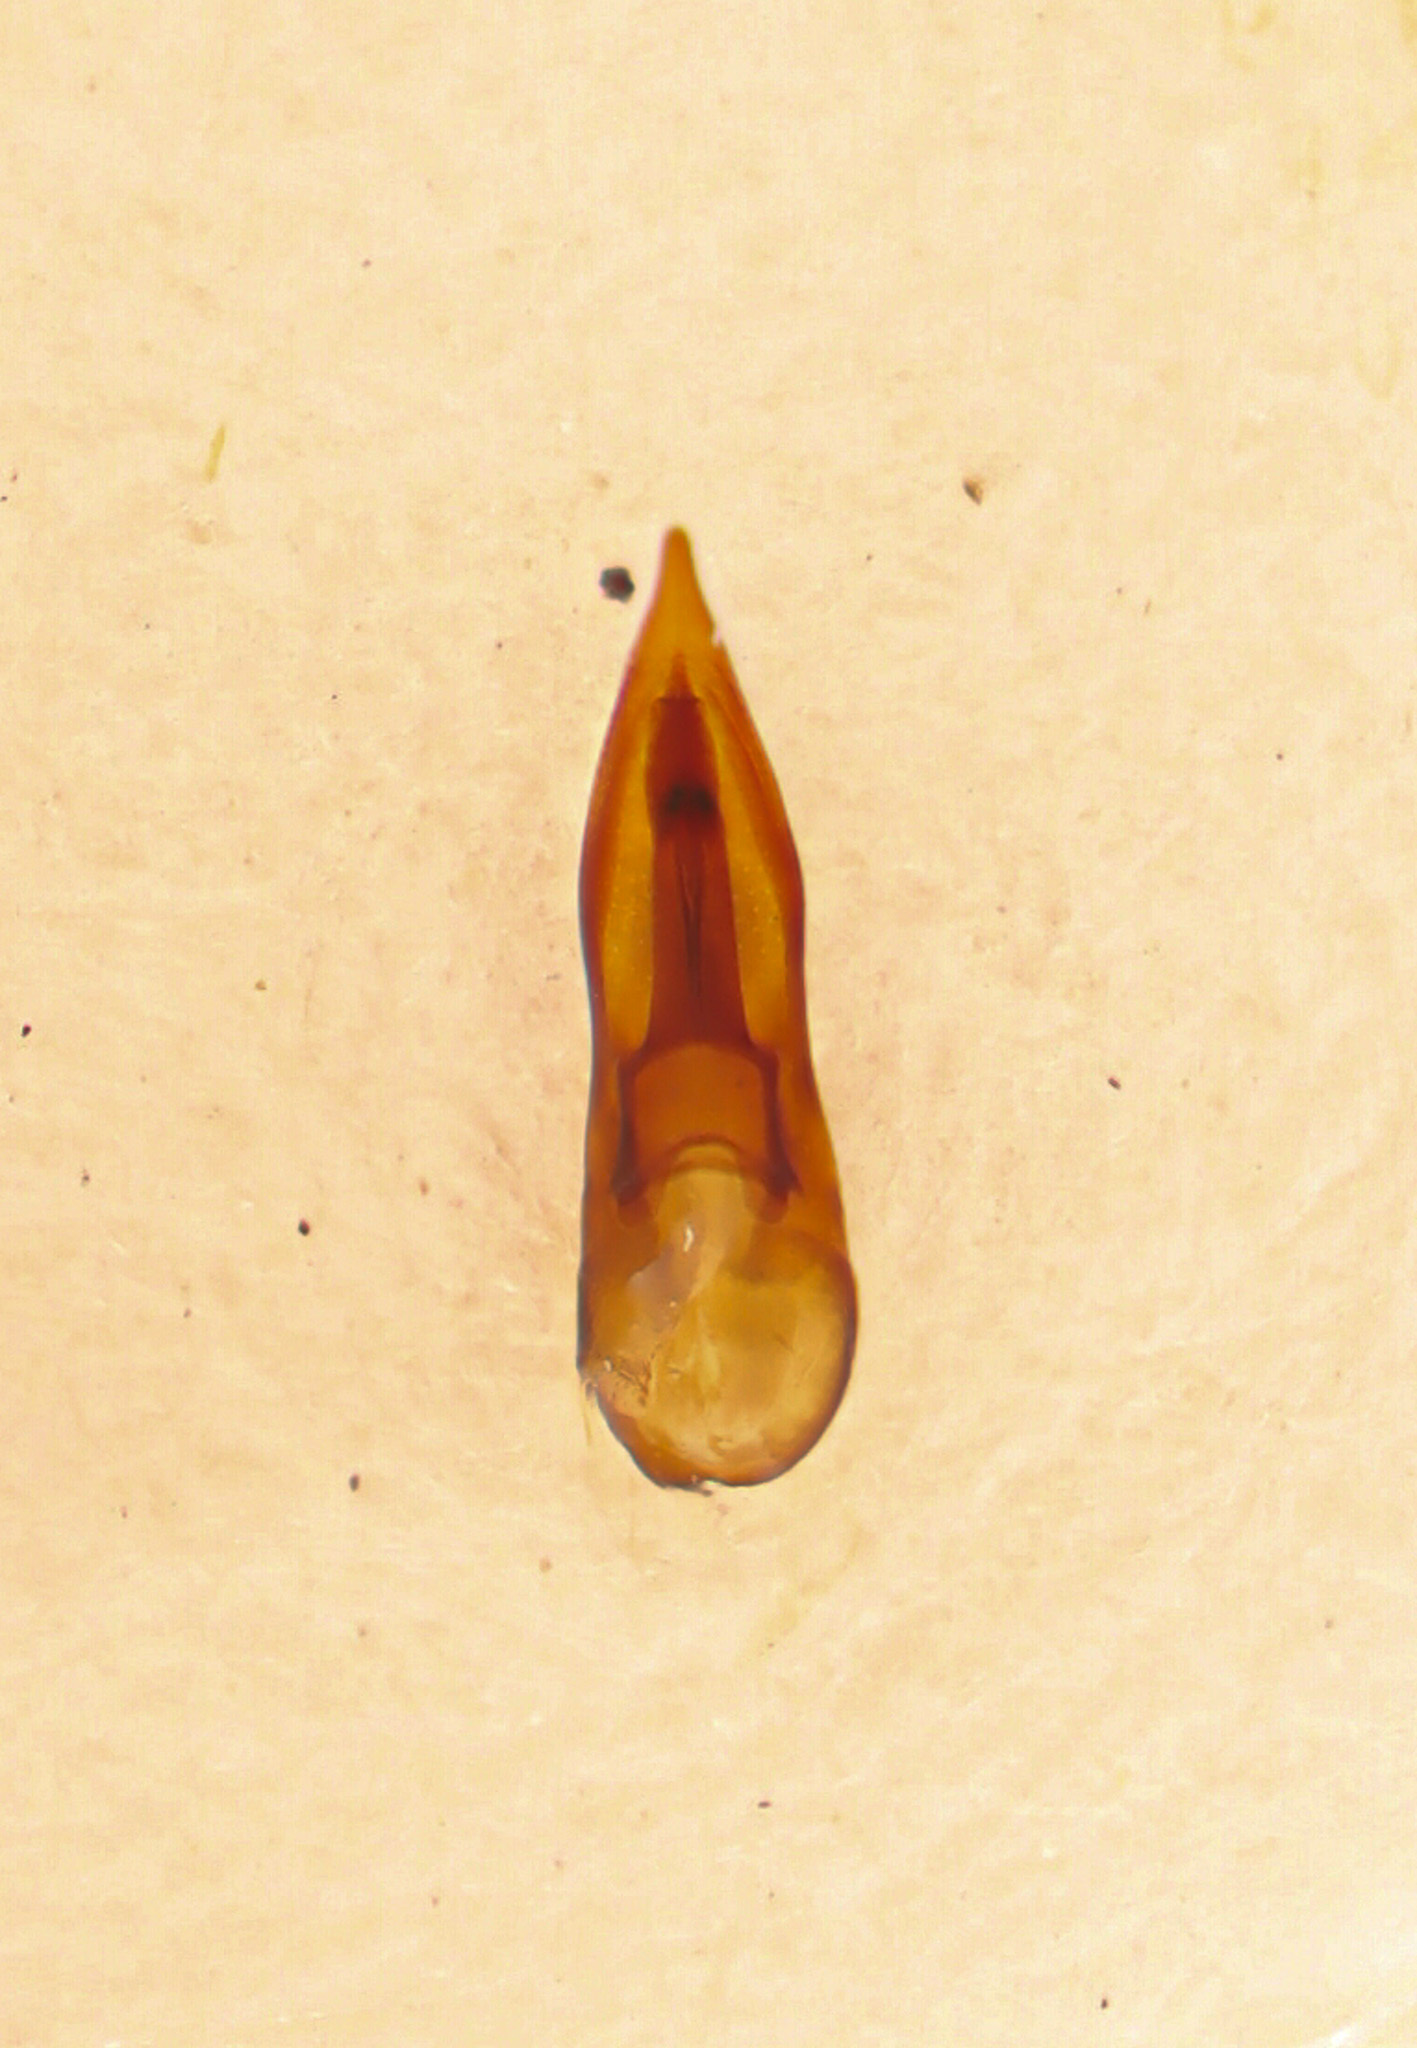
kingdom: Animalia
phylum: Arthropoda
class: Insecta
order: Coleoptera
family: Staphylinidae
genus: Philonthus
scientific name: Philonthus lindrothi
